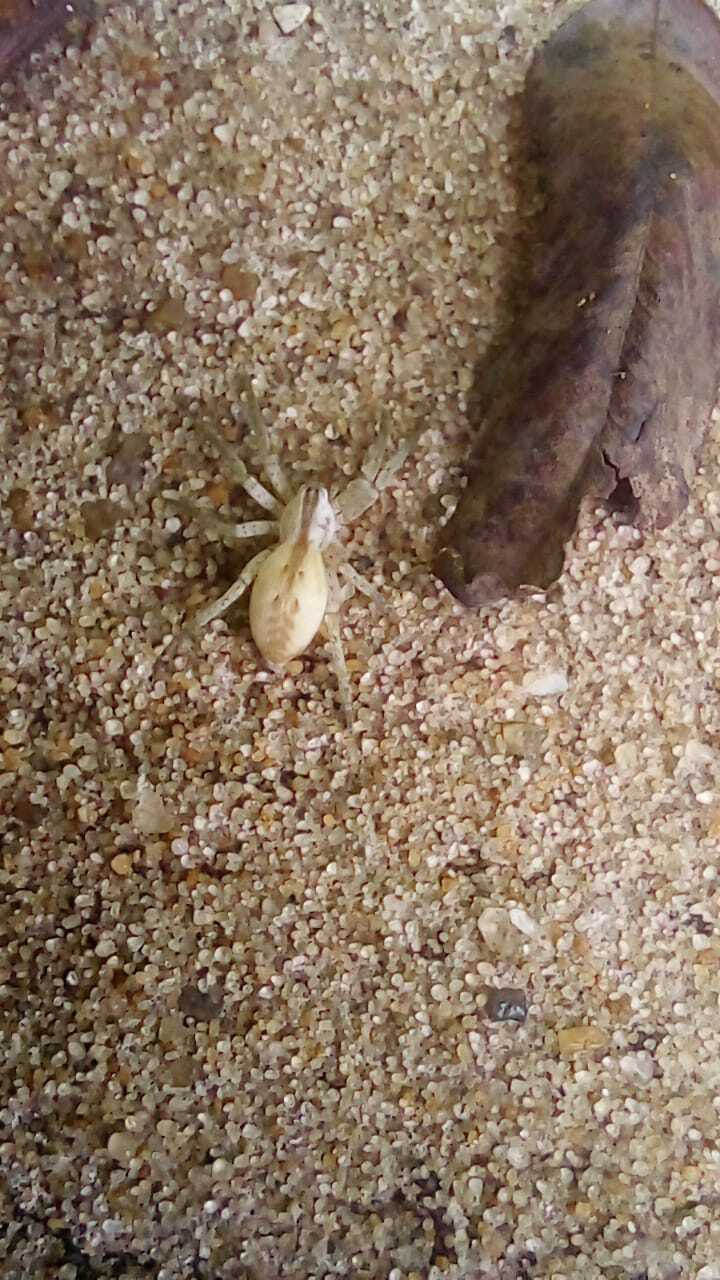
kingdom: Animalia
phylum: Arthropoda
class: Arachnida
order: Araneae
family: Anyphaenidae
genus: Arachosia
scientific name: Arachosia praesignis
